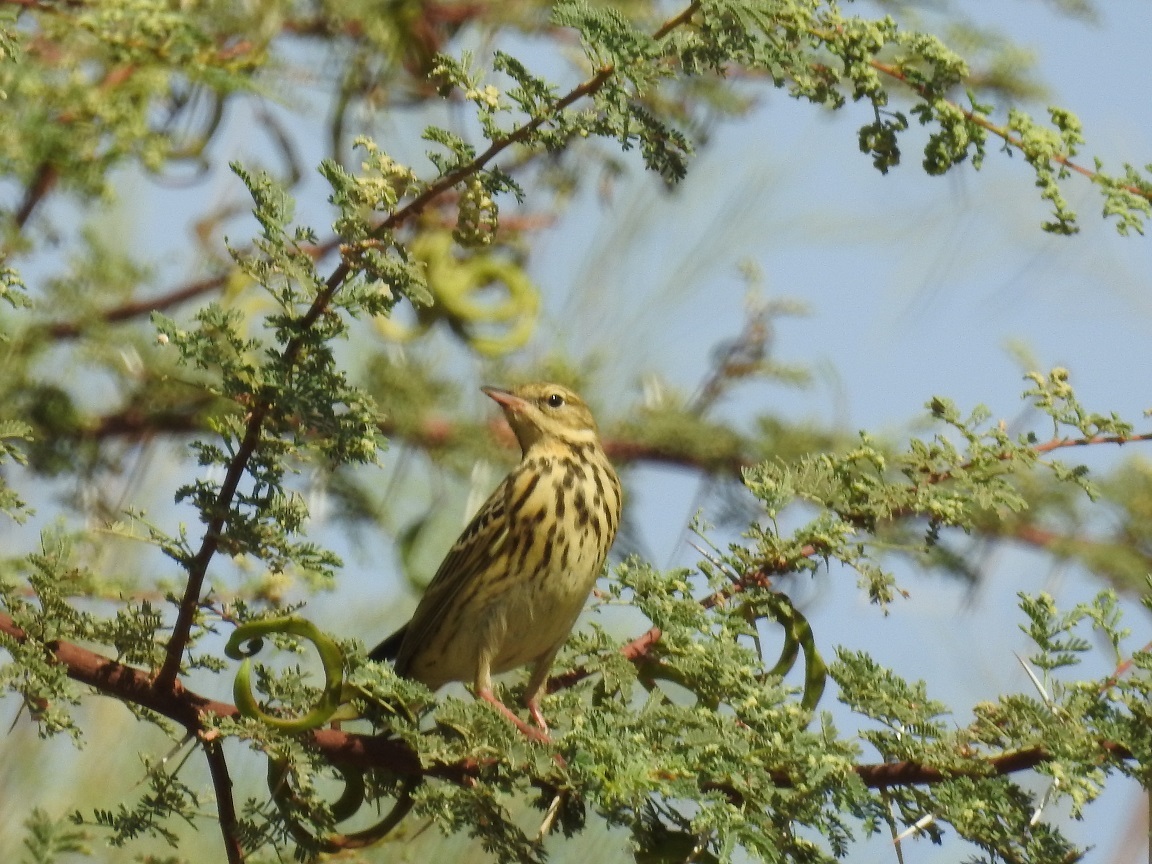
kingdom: Animalia
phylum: Chordata
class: Aves
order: Passeriformes
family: Motacillidae
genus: Anthus
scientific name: Anthus trivialis
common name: Tree pipit
